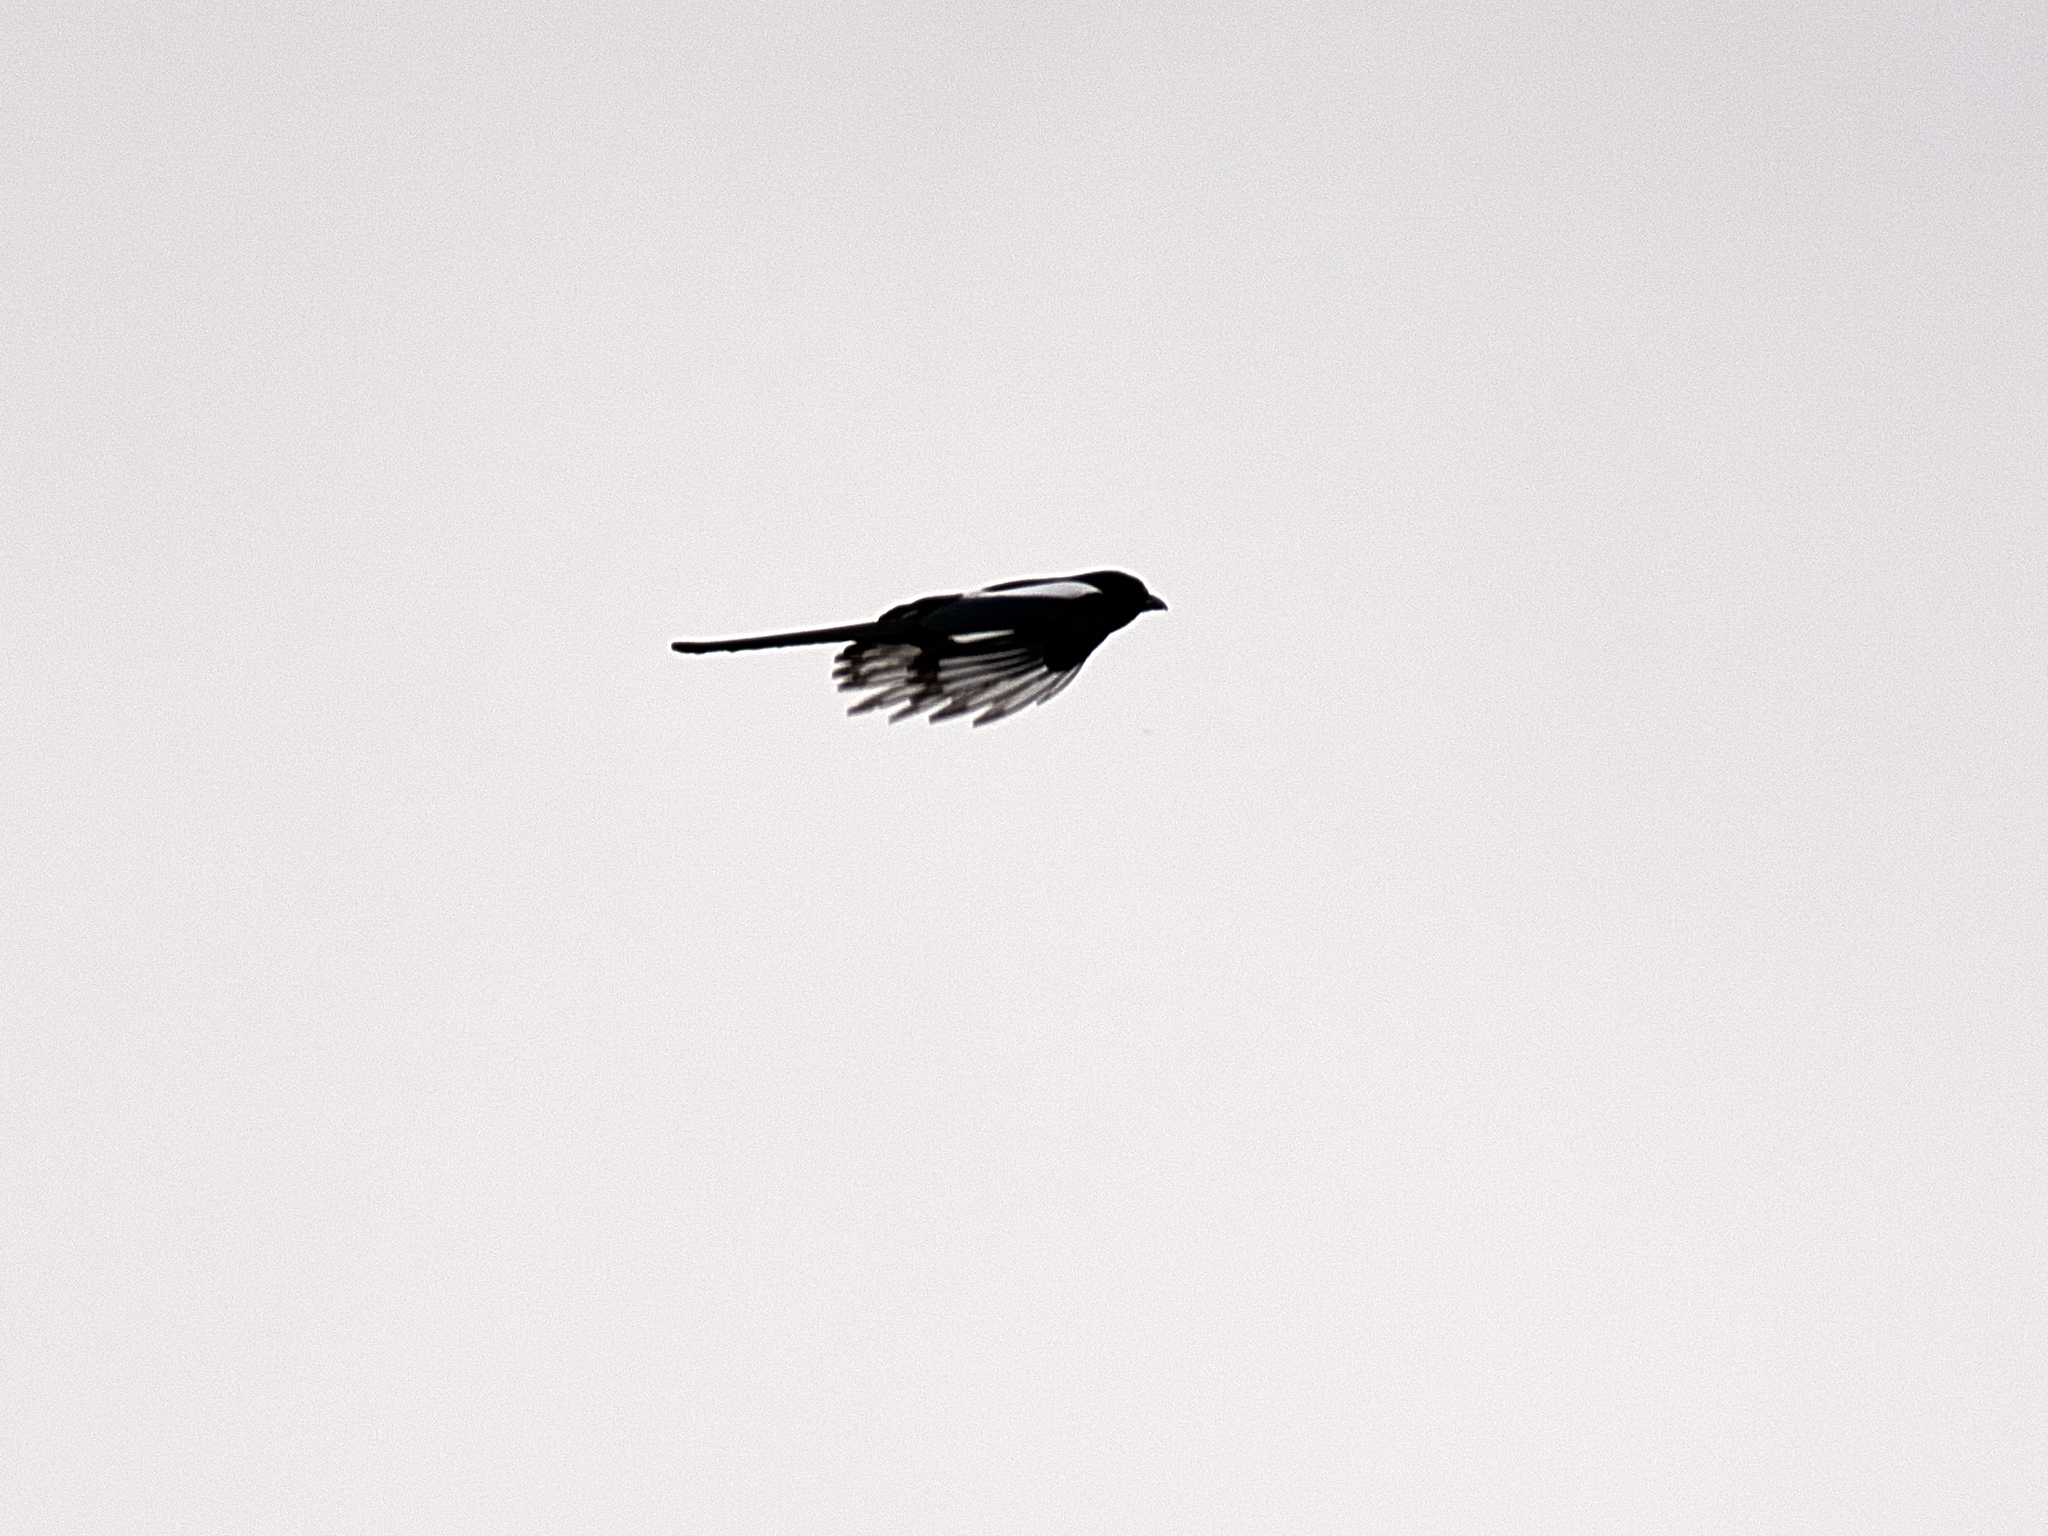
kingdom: Animalia
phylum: Chordata
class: Aves
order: Passeriformes
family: Corvidae
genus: Pica
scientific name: Pica pica
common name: Eurasian magpie
